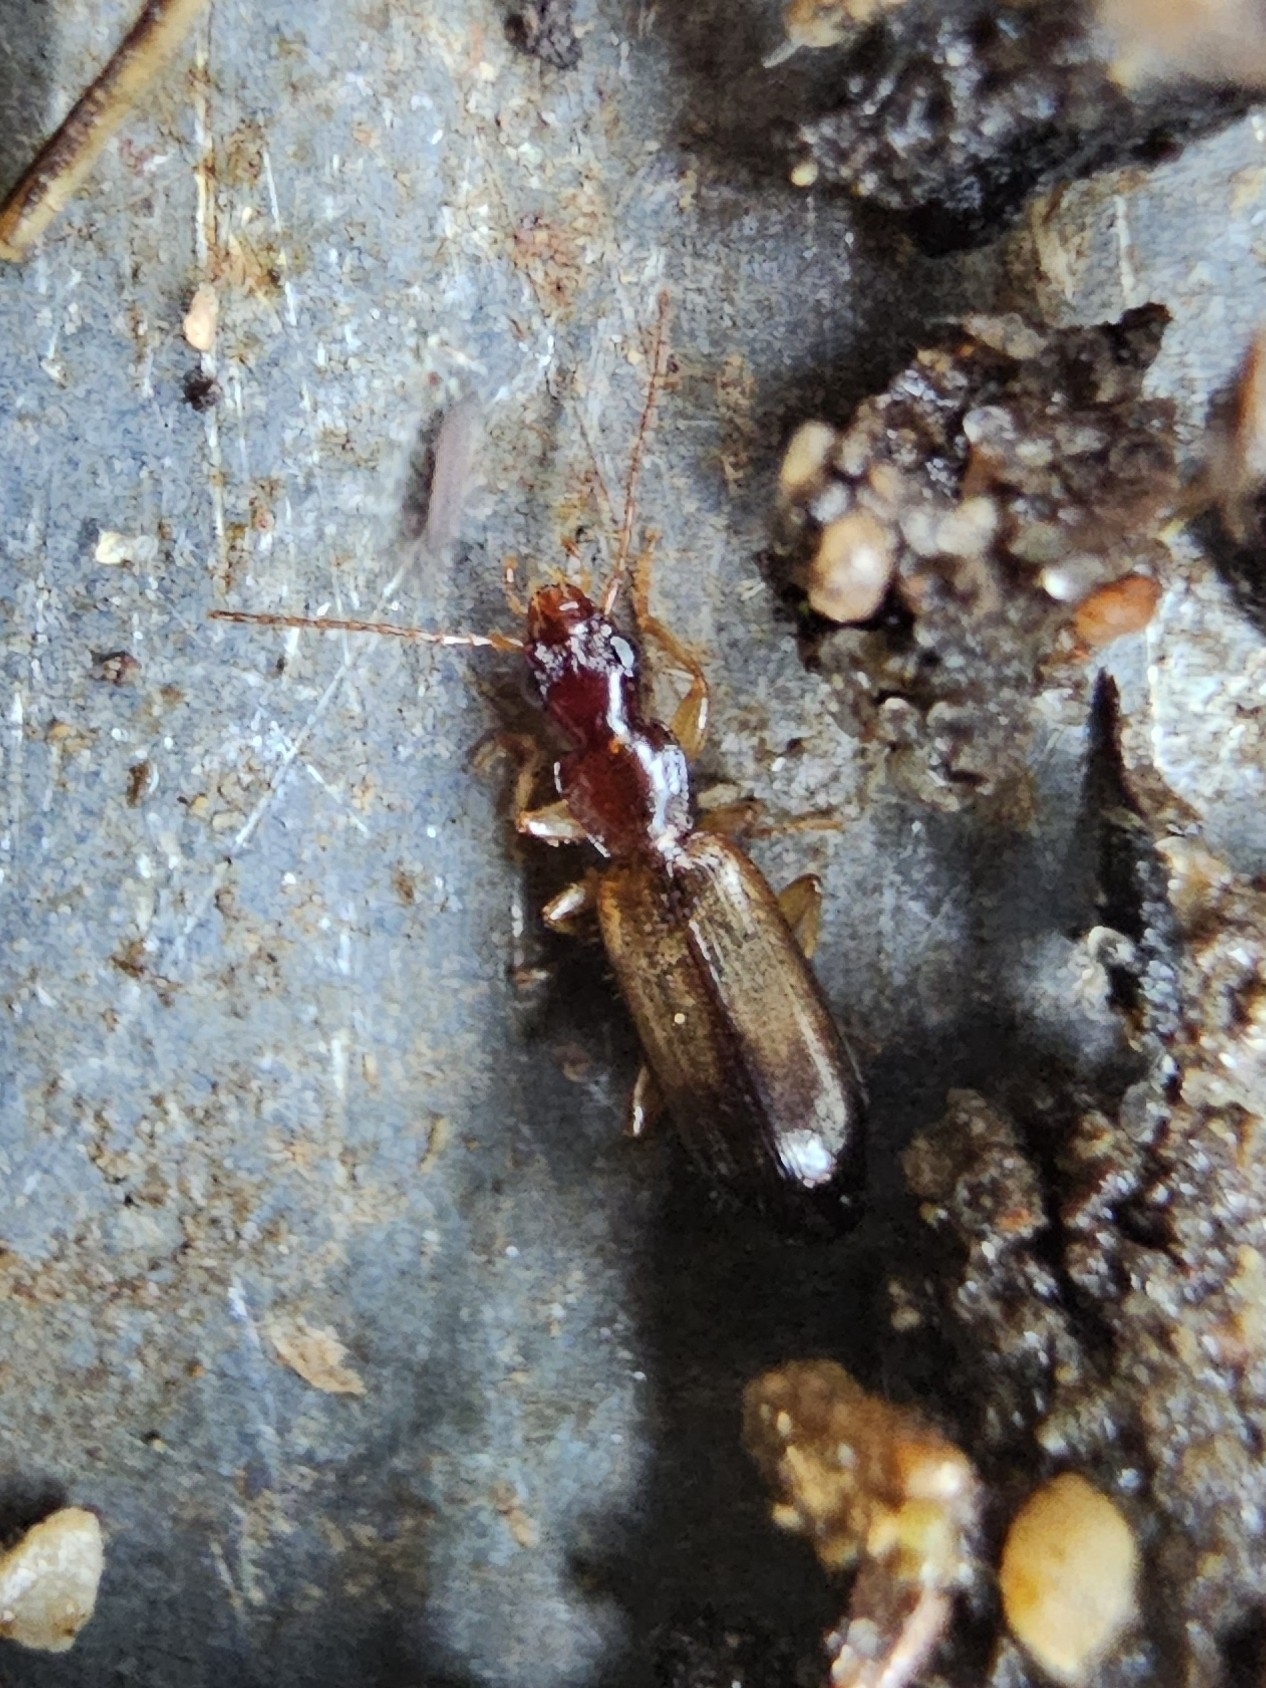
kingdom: Animalia
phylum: Arthropoda
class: Insecta
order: Coleoptera
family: Carabidae
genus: Paradromius
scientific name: Paradromius linearis
